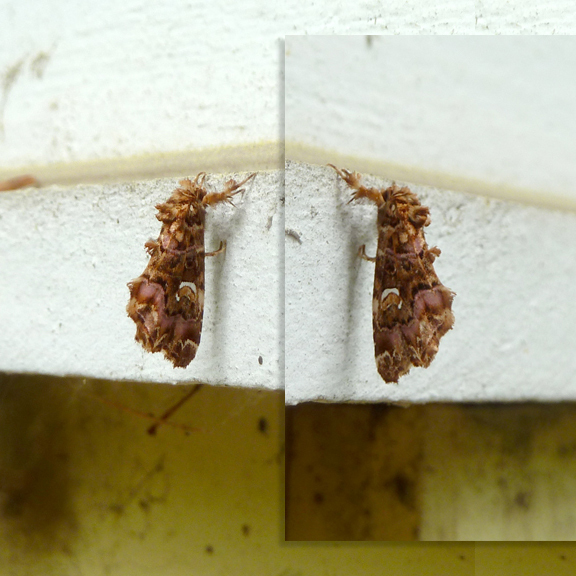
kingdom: Animalia
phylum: Arthropoda
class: Insecta
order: Lepidoptera
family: Noctuidae
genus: Callopistria
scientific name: Callopistria mollissima
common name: Pink-shaded fern moth
